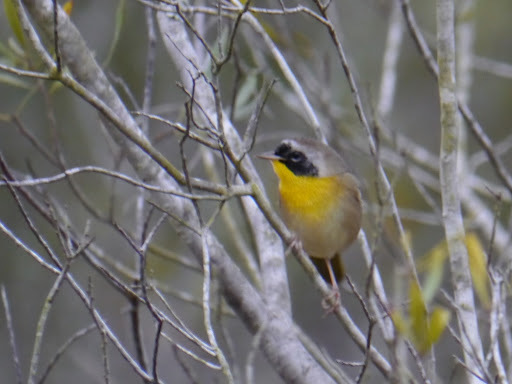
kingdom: Animalia
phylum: Chordata
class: Aves
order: Passeriformes
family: Parulidae
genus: Geothlypis
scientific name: Geothlypis trichas
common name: Common yellowthroat
